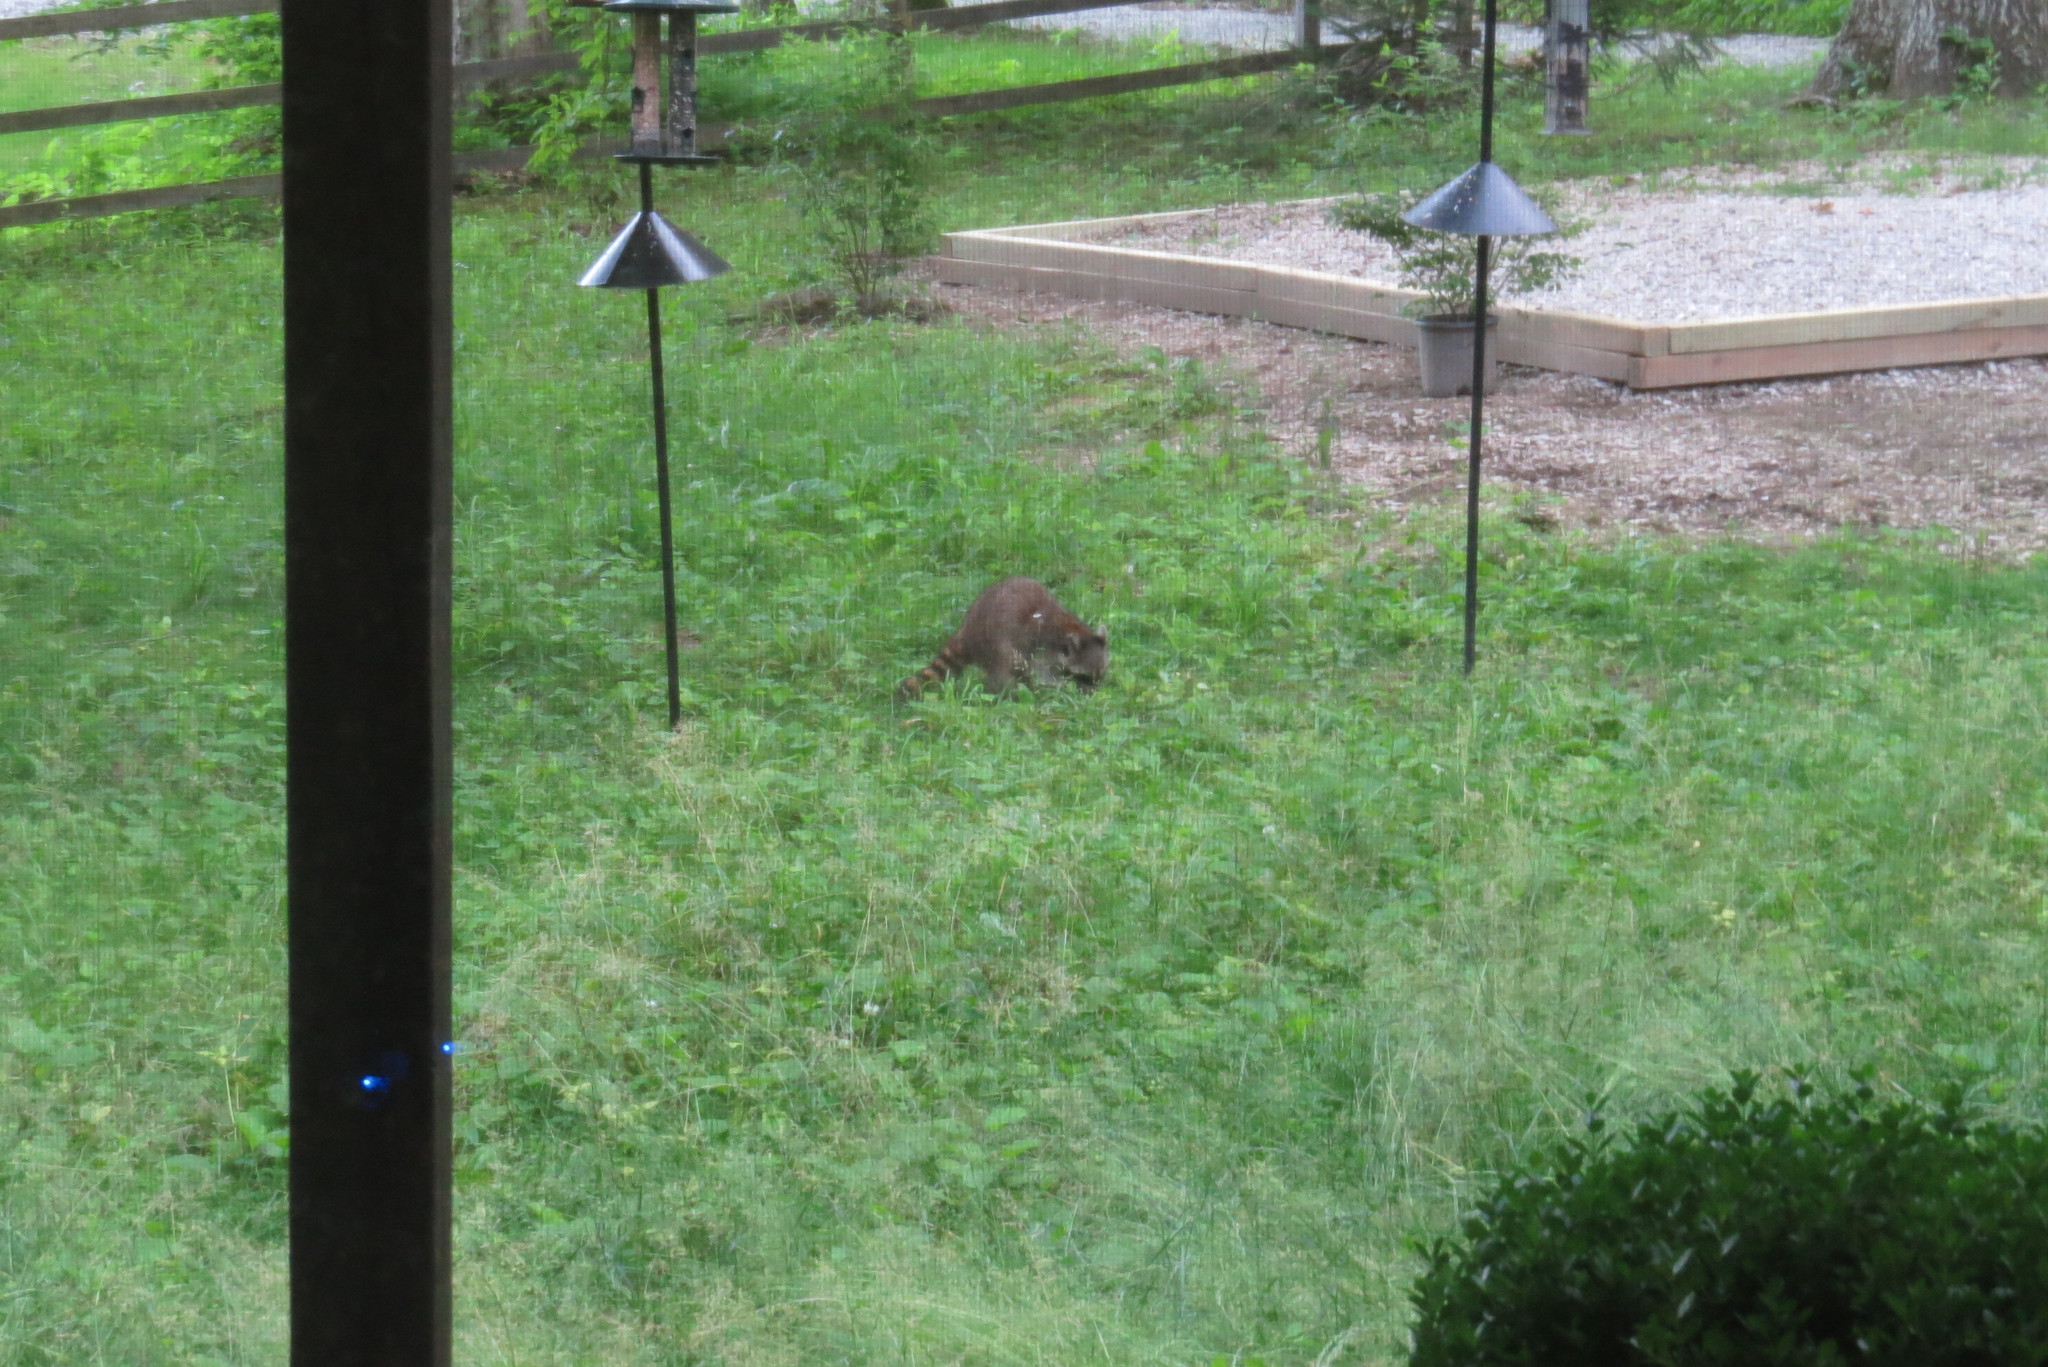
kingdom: Animalia
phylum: Chordata
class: Mammalia
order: Carnivora
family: Procyonidae
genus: Procyon
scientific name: Procyon lotor
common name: Raccoon
